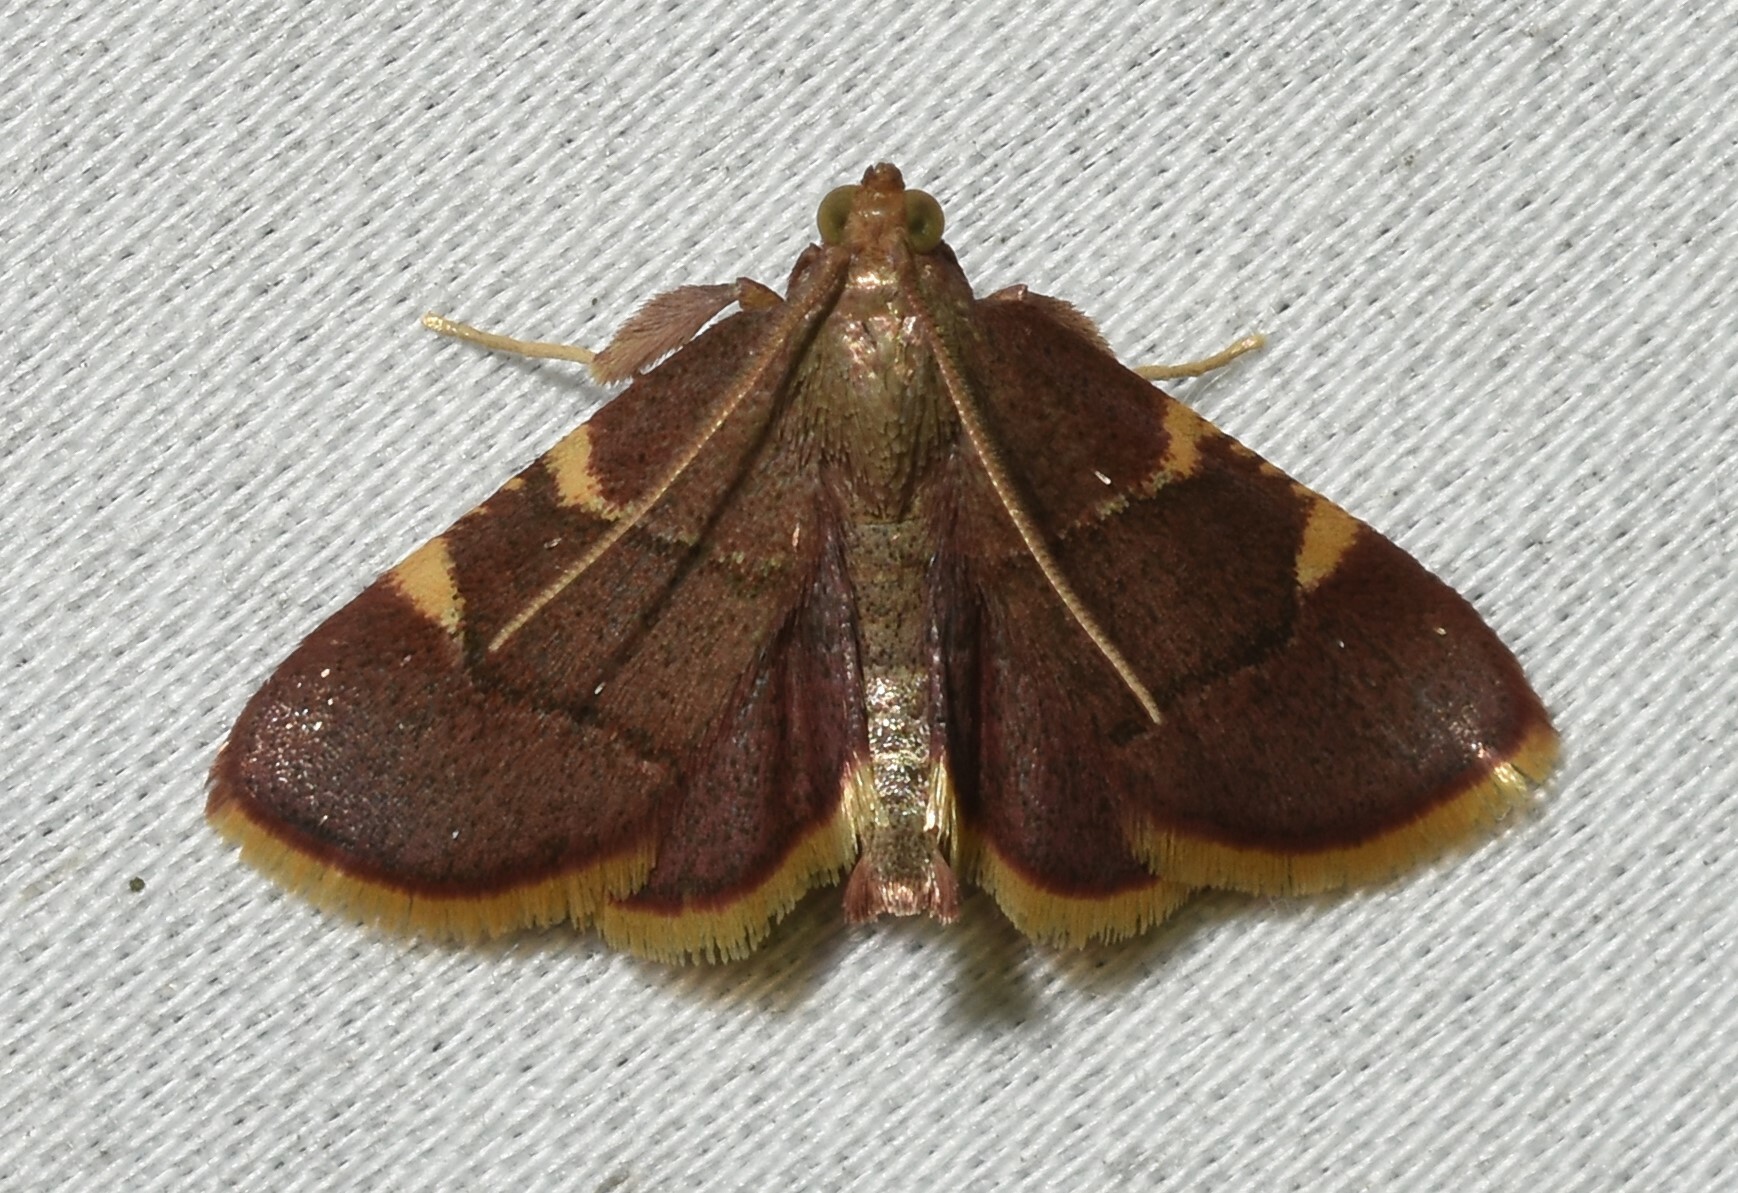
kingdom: Animalia
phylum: Arthropoda
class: Insecta
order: Lepidoptera
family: Pyralidae
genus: Hypsopygia
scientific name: Hypsopygia olinalis
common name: Yellow-fringed dolichomia moth
